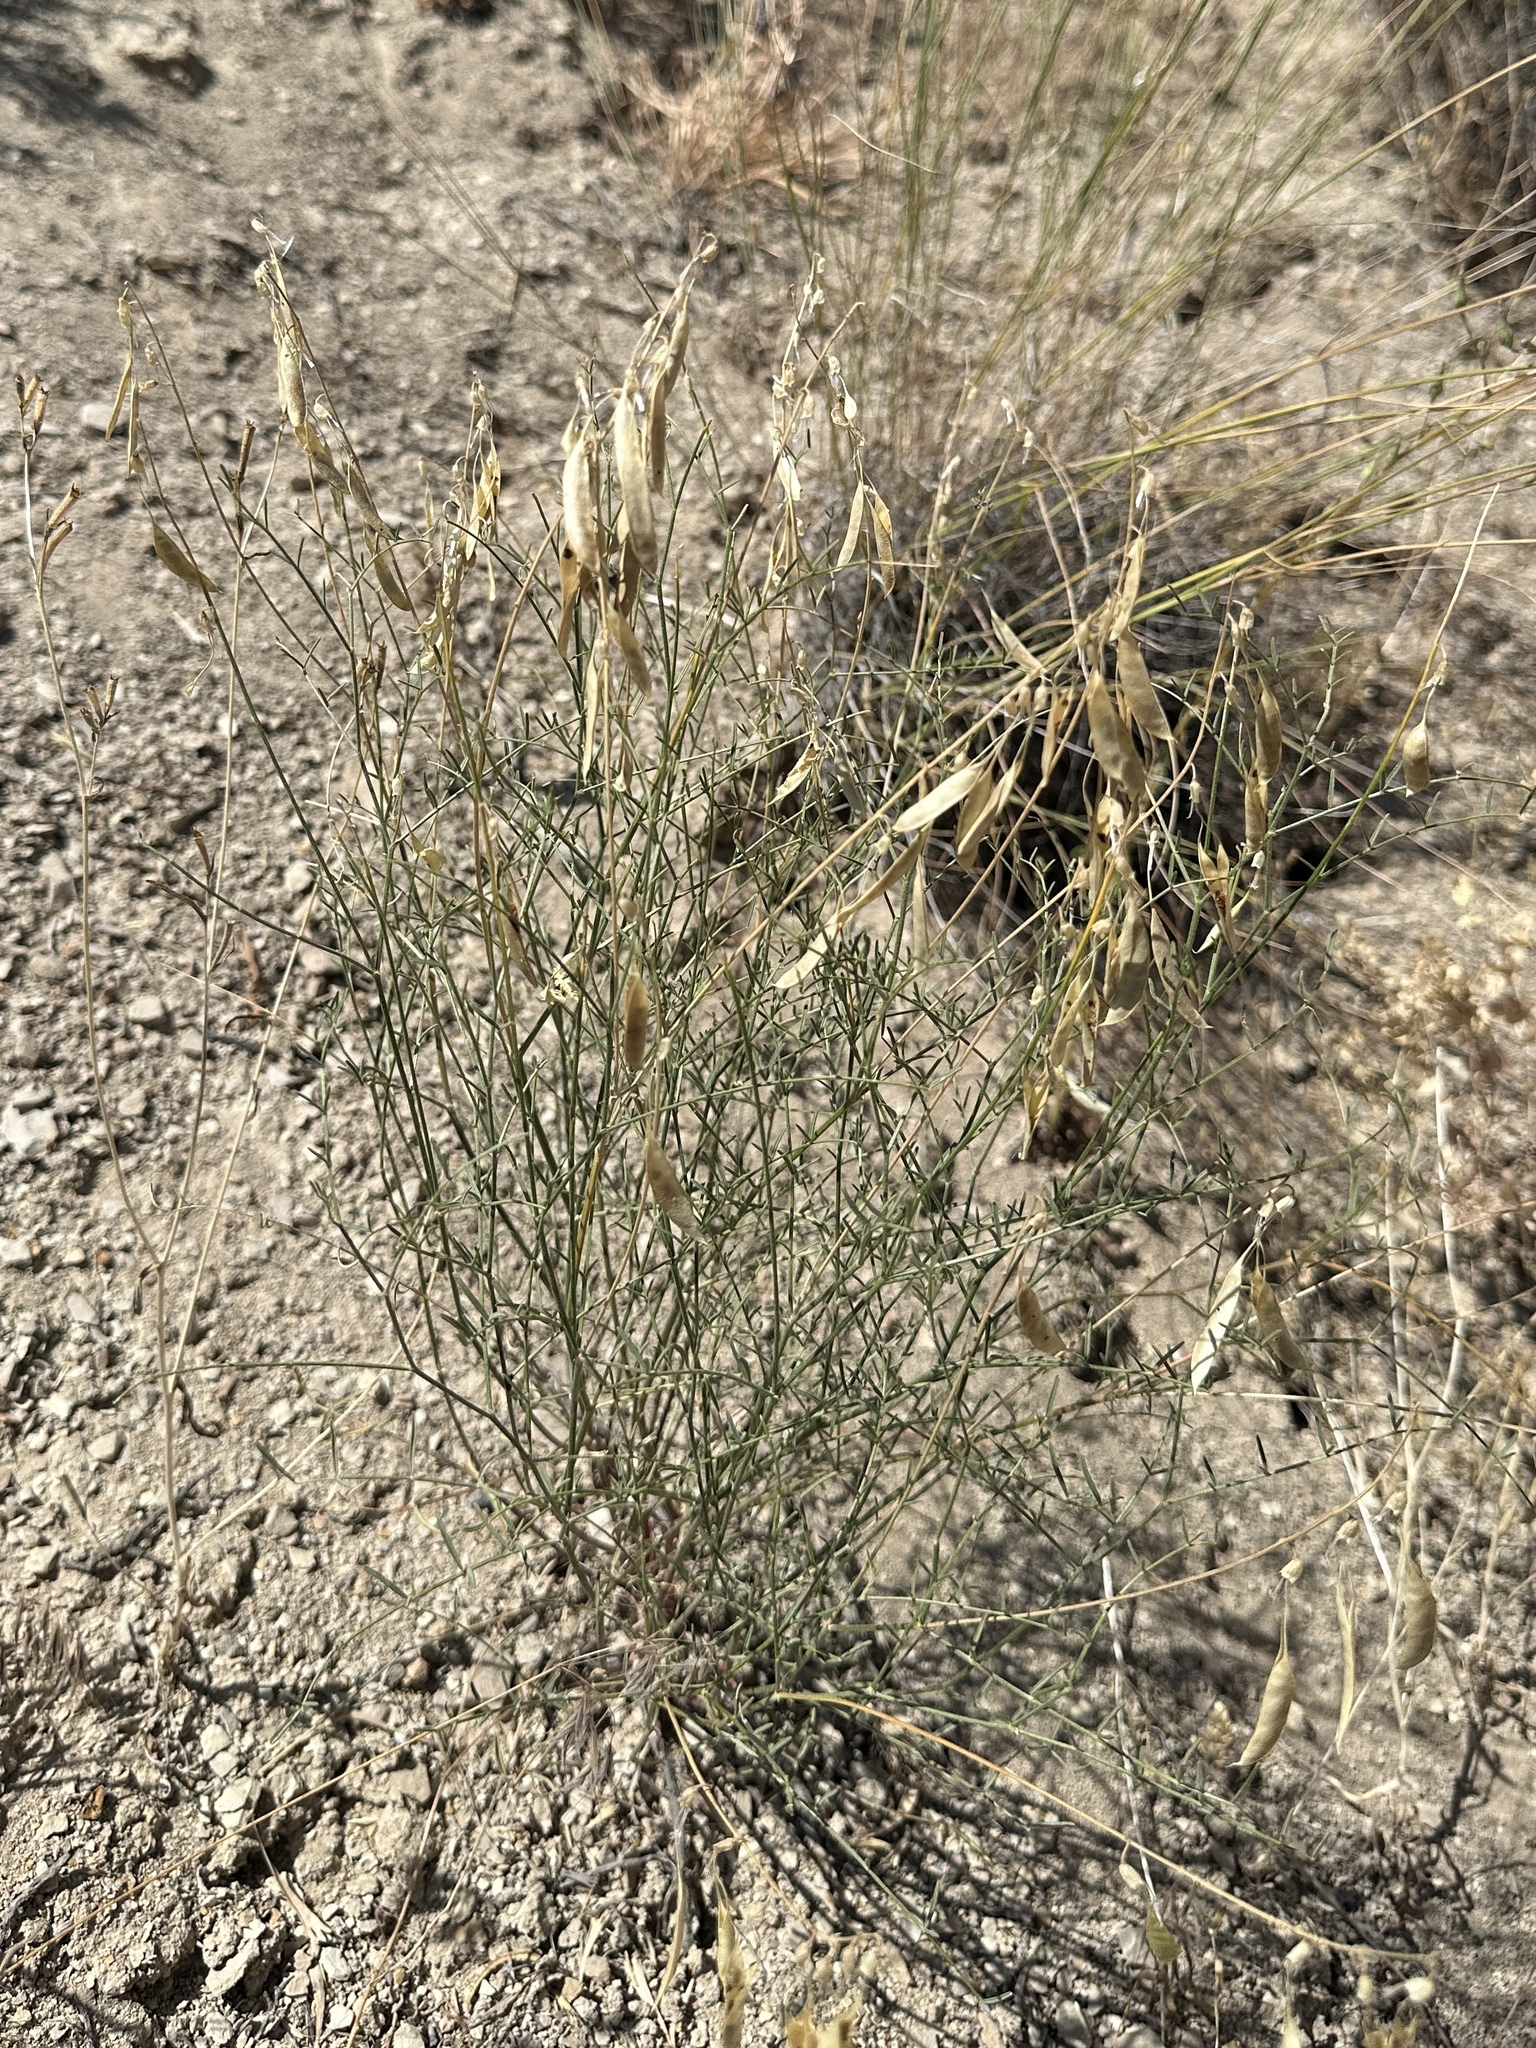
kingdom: Plantae
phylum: Tracheophyta
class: Magnoliopsida
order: Fabales
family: Fabaceae
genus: Astragalus
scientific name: Astragalus filipes
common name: Basalt milk-vetch
